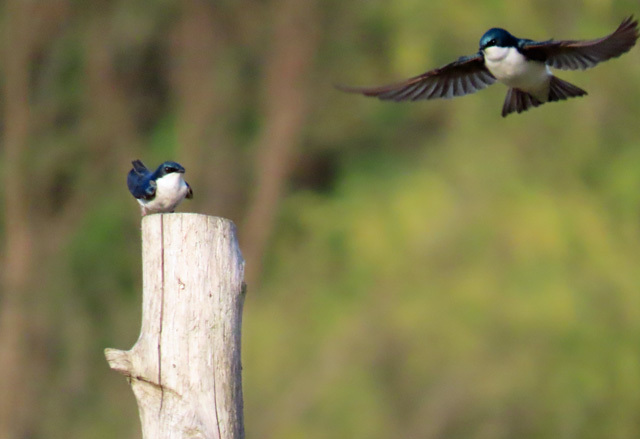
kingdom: Animalia
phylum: Chordata
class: Aves
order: Passeriformes
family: Hirundinidae
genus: Tachycineta
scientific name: Tachycineta bicolor
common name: Tree swallow
